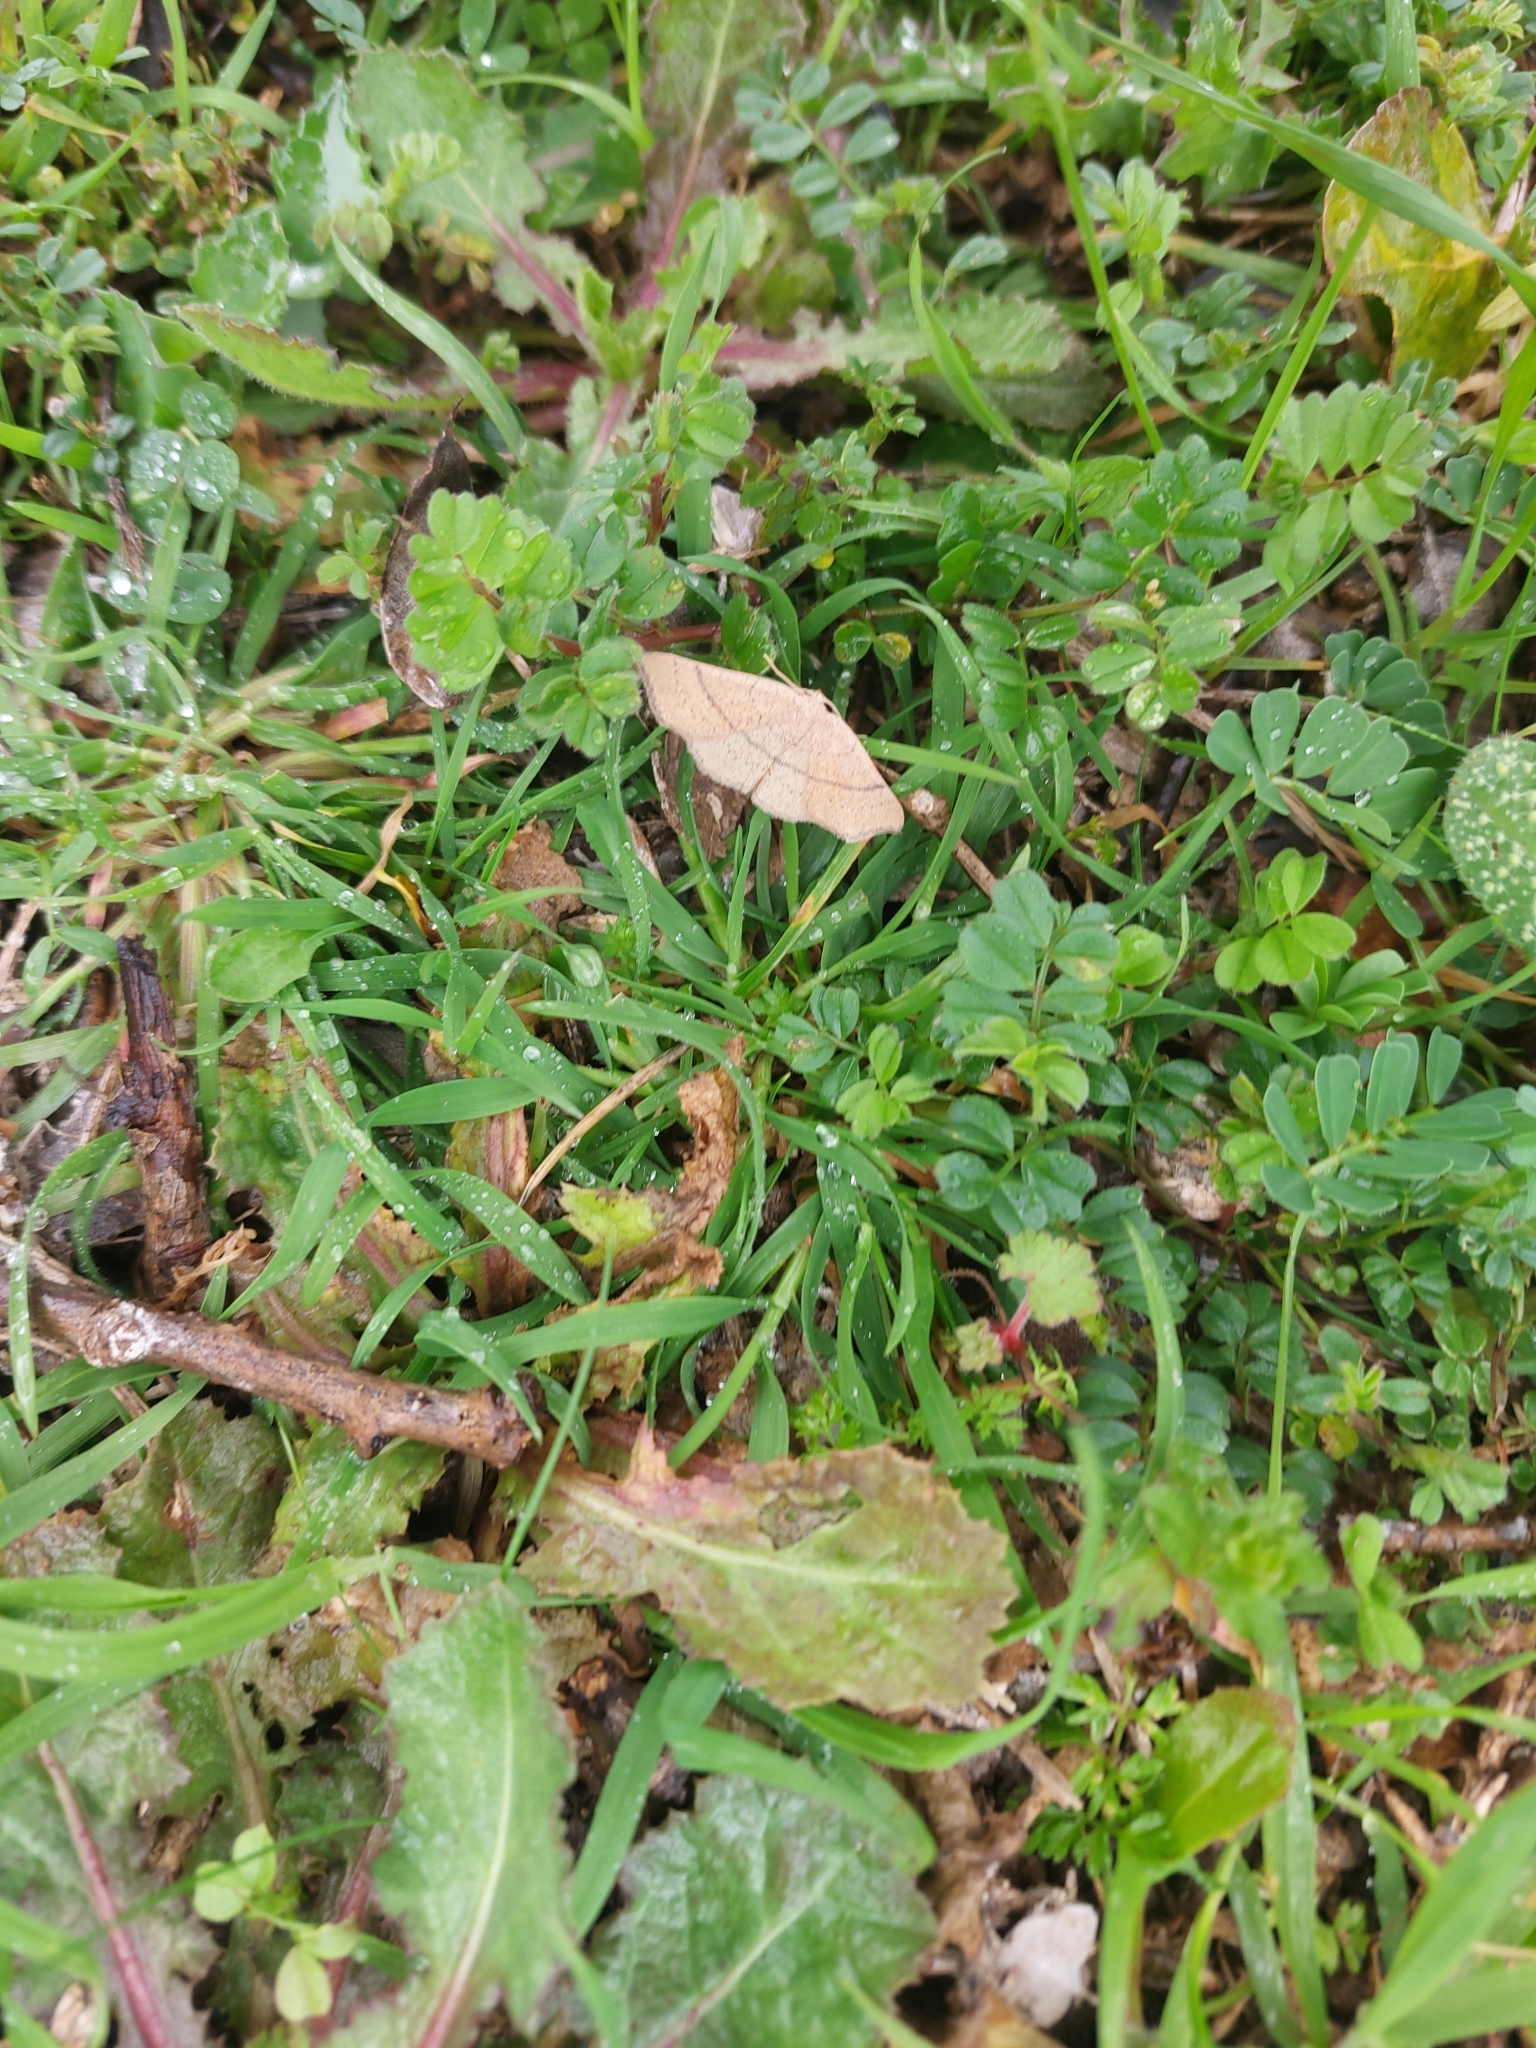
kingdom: Animalia
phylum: Arthropoda
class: Insecta
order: Lepidoptera
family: Geometridae
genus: Cyclophora
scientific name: Cyclophora suppunctaria
